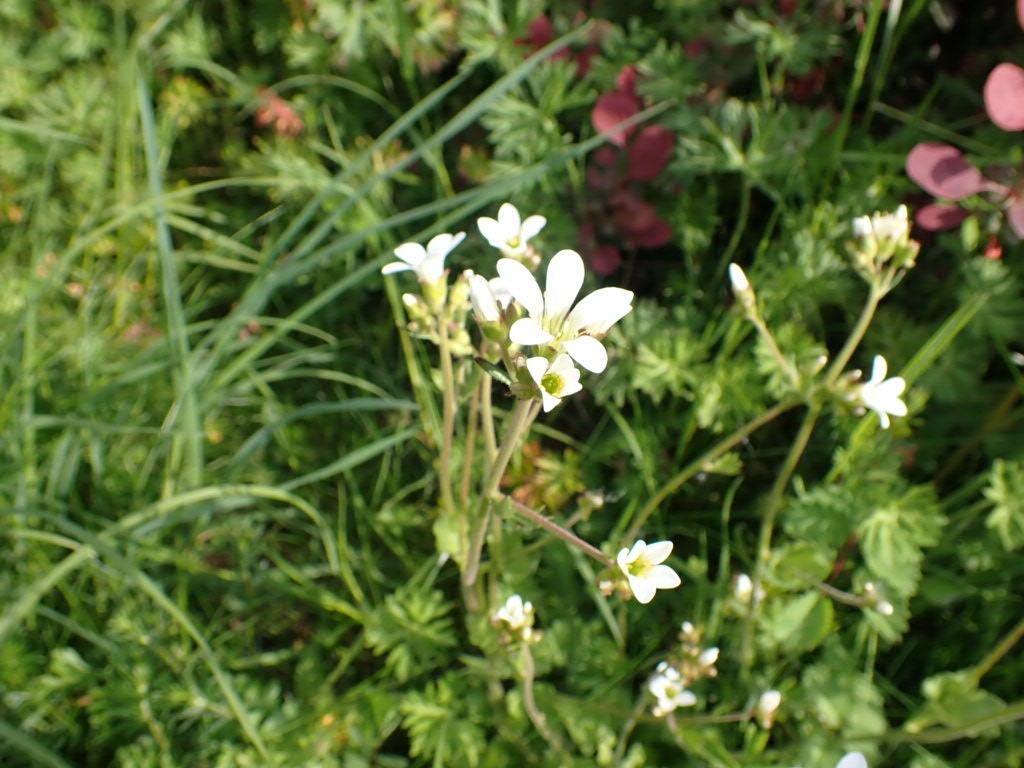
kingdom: Plantae
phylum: Tracheophyta
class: Magnoliopsida
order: Saxifragales
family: Saxifragaceae
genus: Saxifraga
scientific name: Saxifraga granulata
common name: Meadow saxifrage
